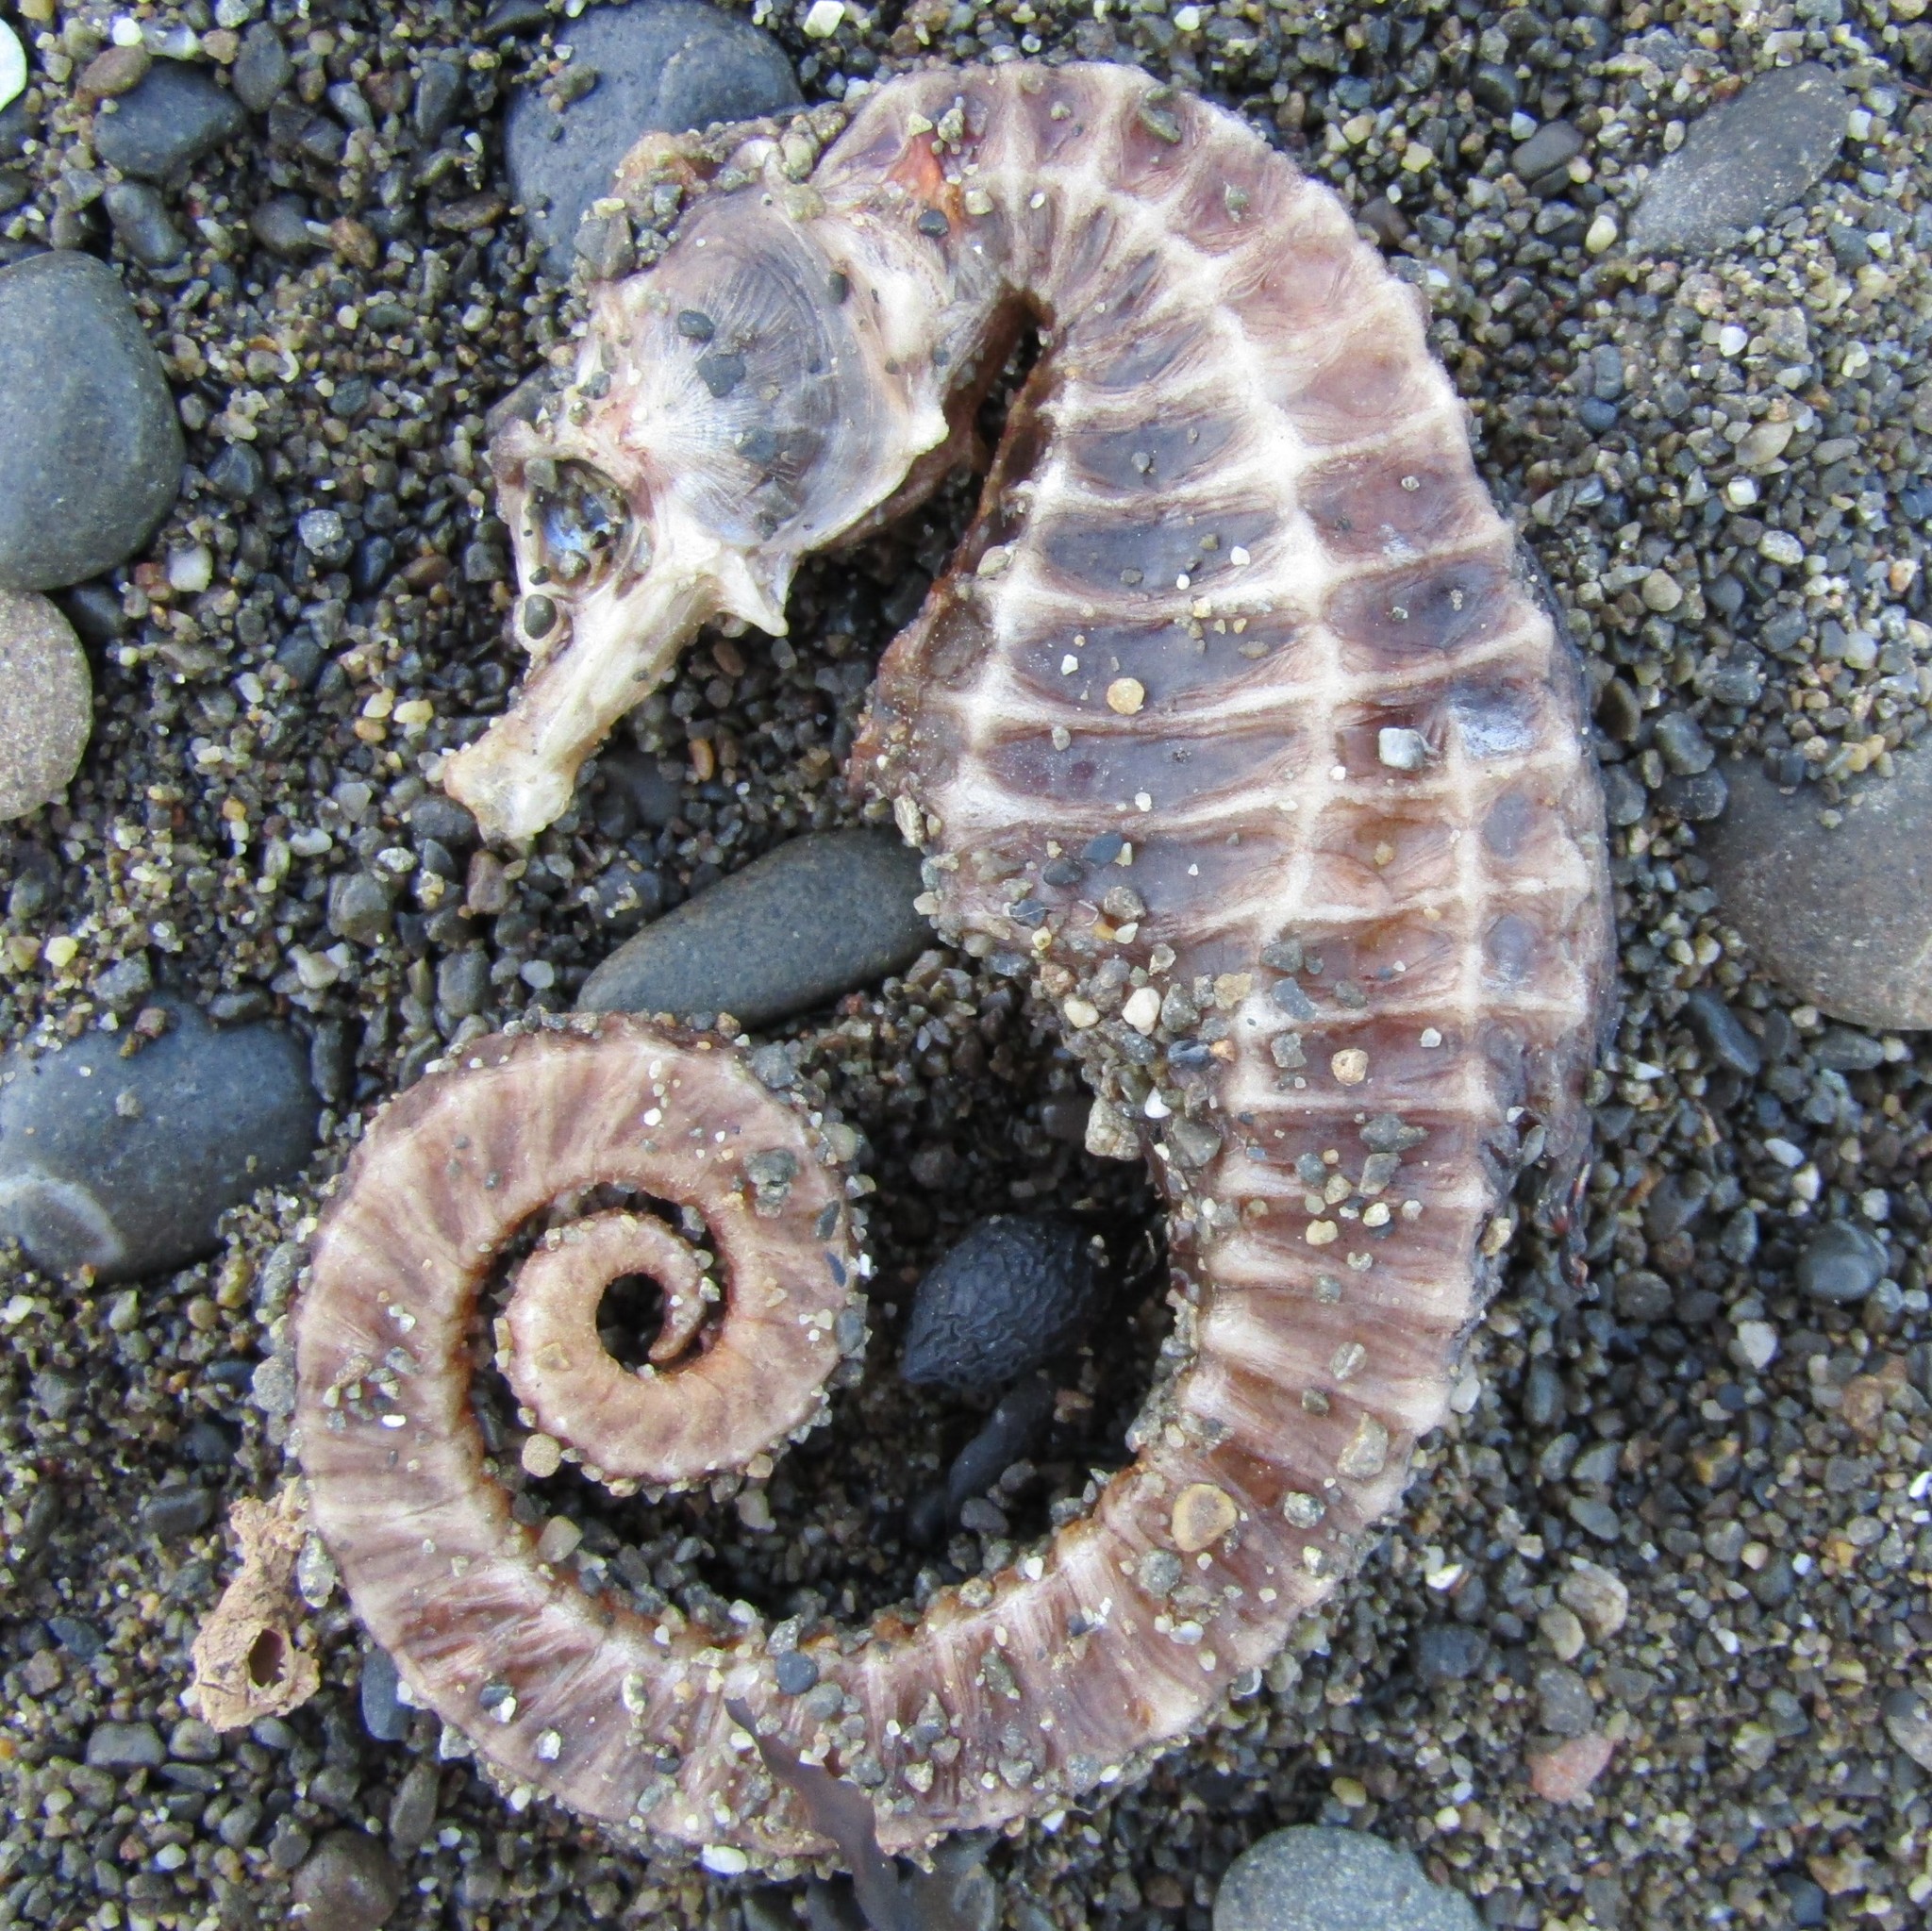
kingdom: Animalia
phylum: Chordata
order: Syngnathiformes
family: Syngnathidae
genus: Hippocampus
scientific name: Hippocampus abdominalis
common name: Big-belly seahorse
